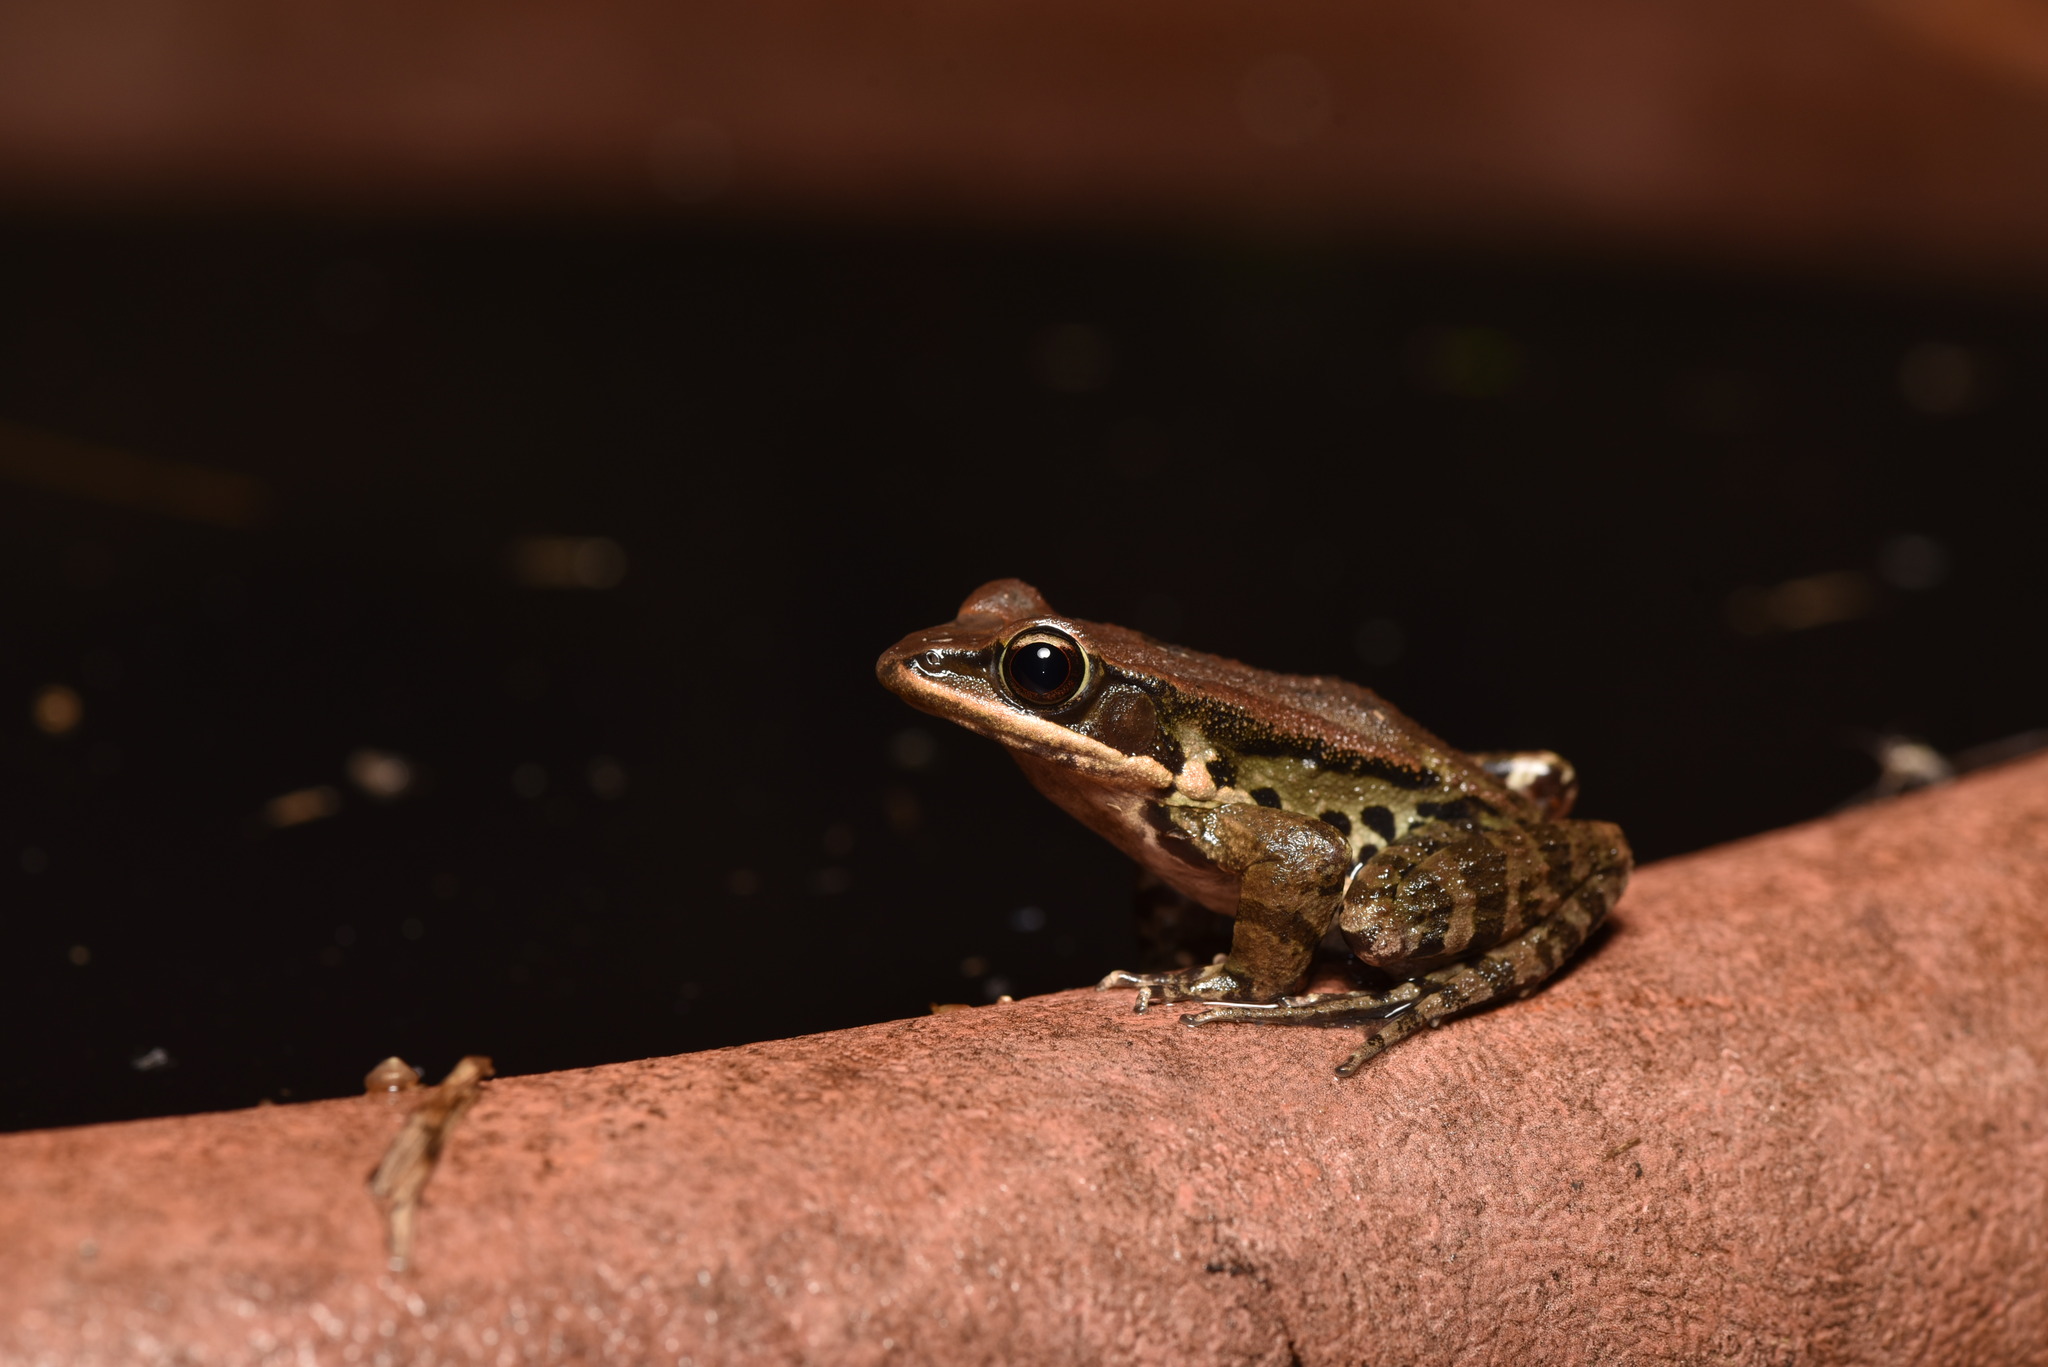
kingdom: Animalia
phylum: Chordata
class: Amphibia
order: Anura
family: Ranidae
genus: Hylarana
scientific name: Hylarana latouchii
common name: Broad-folded frog
